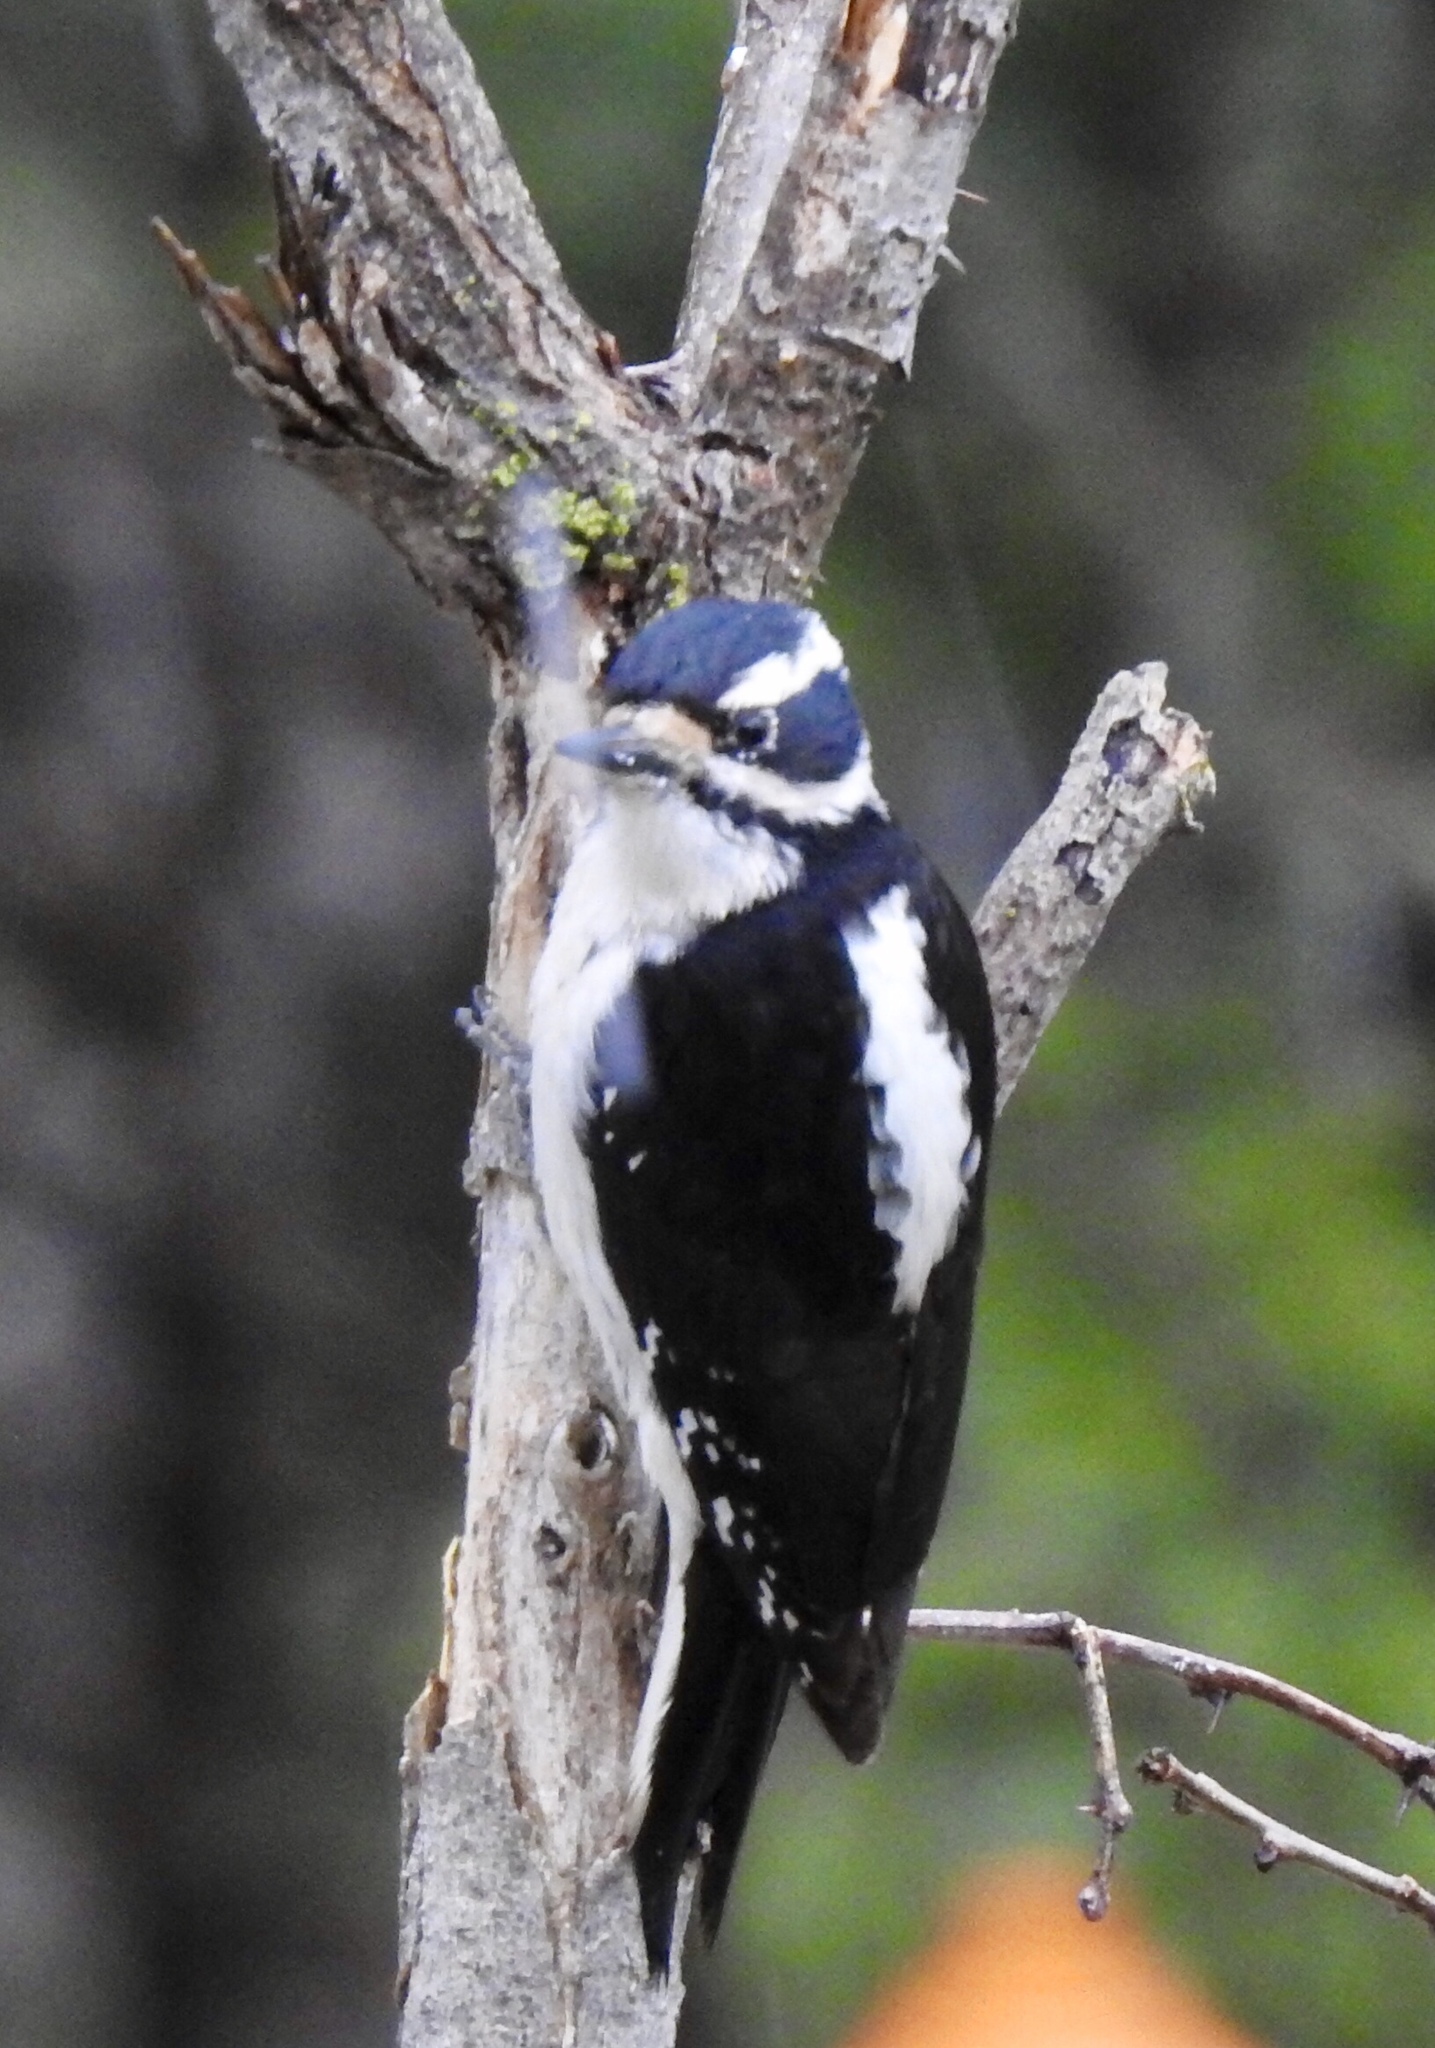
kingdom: Animalia
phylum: Chordata
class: Aves
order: Piciformes
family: Picidae
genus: Leuconotopicus
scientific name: Leuconotopicus villosus
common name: Hairy woodpecker
